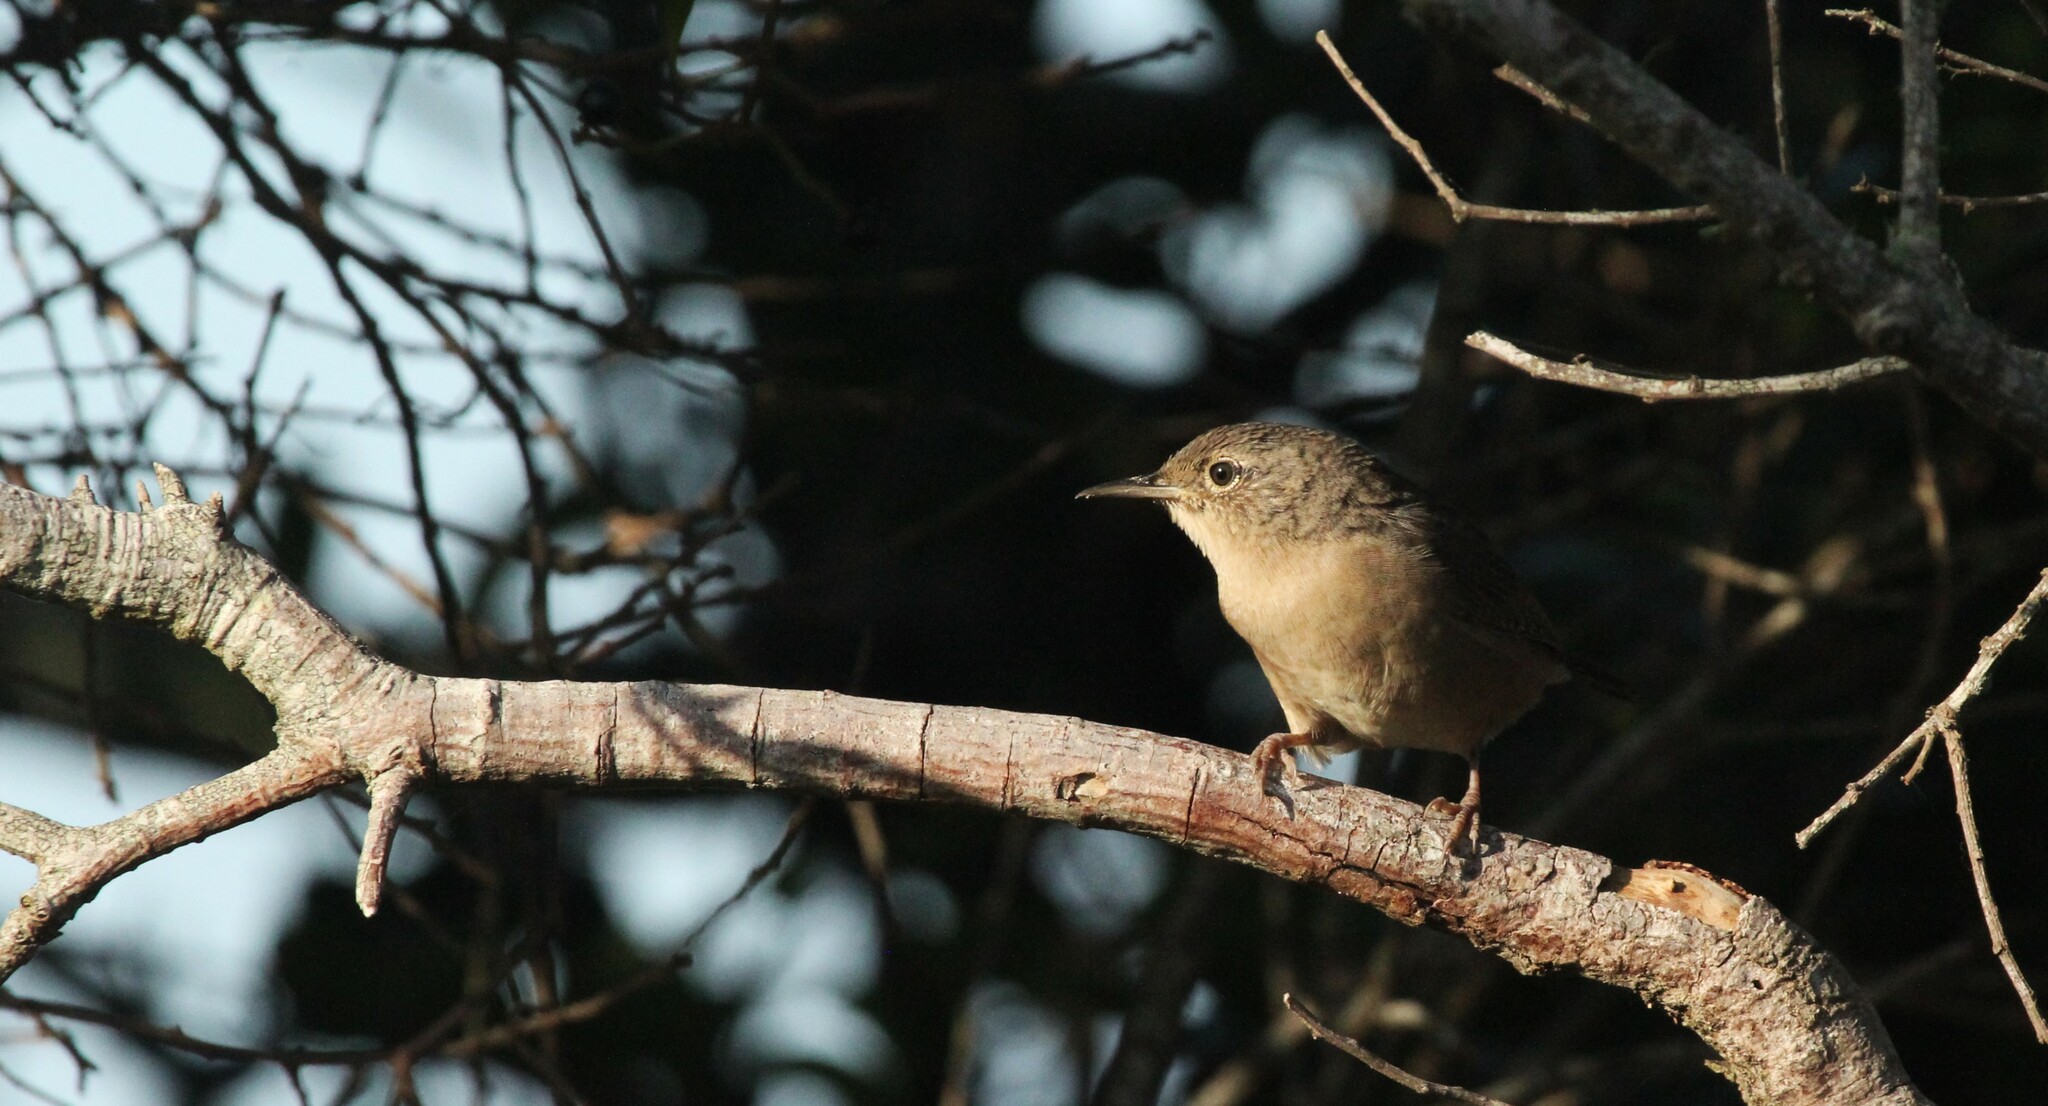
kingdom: Animalia
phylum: Chordata
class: Aves
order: Passeriformes
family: Troglodytidae
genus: Troglodytes
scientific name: Troglodytes aedon
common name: House wren
